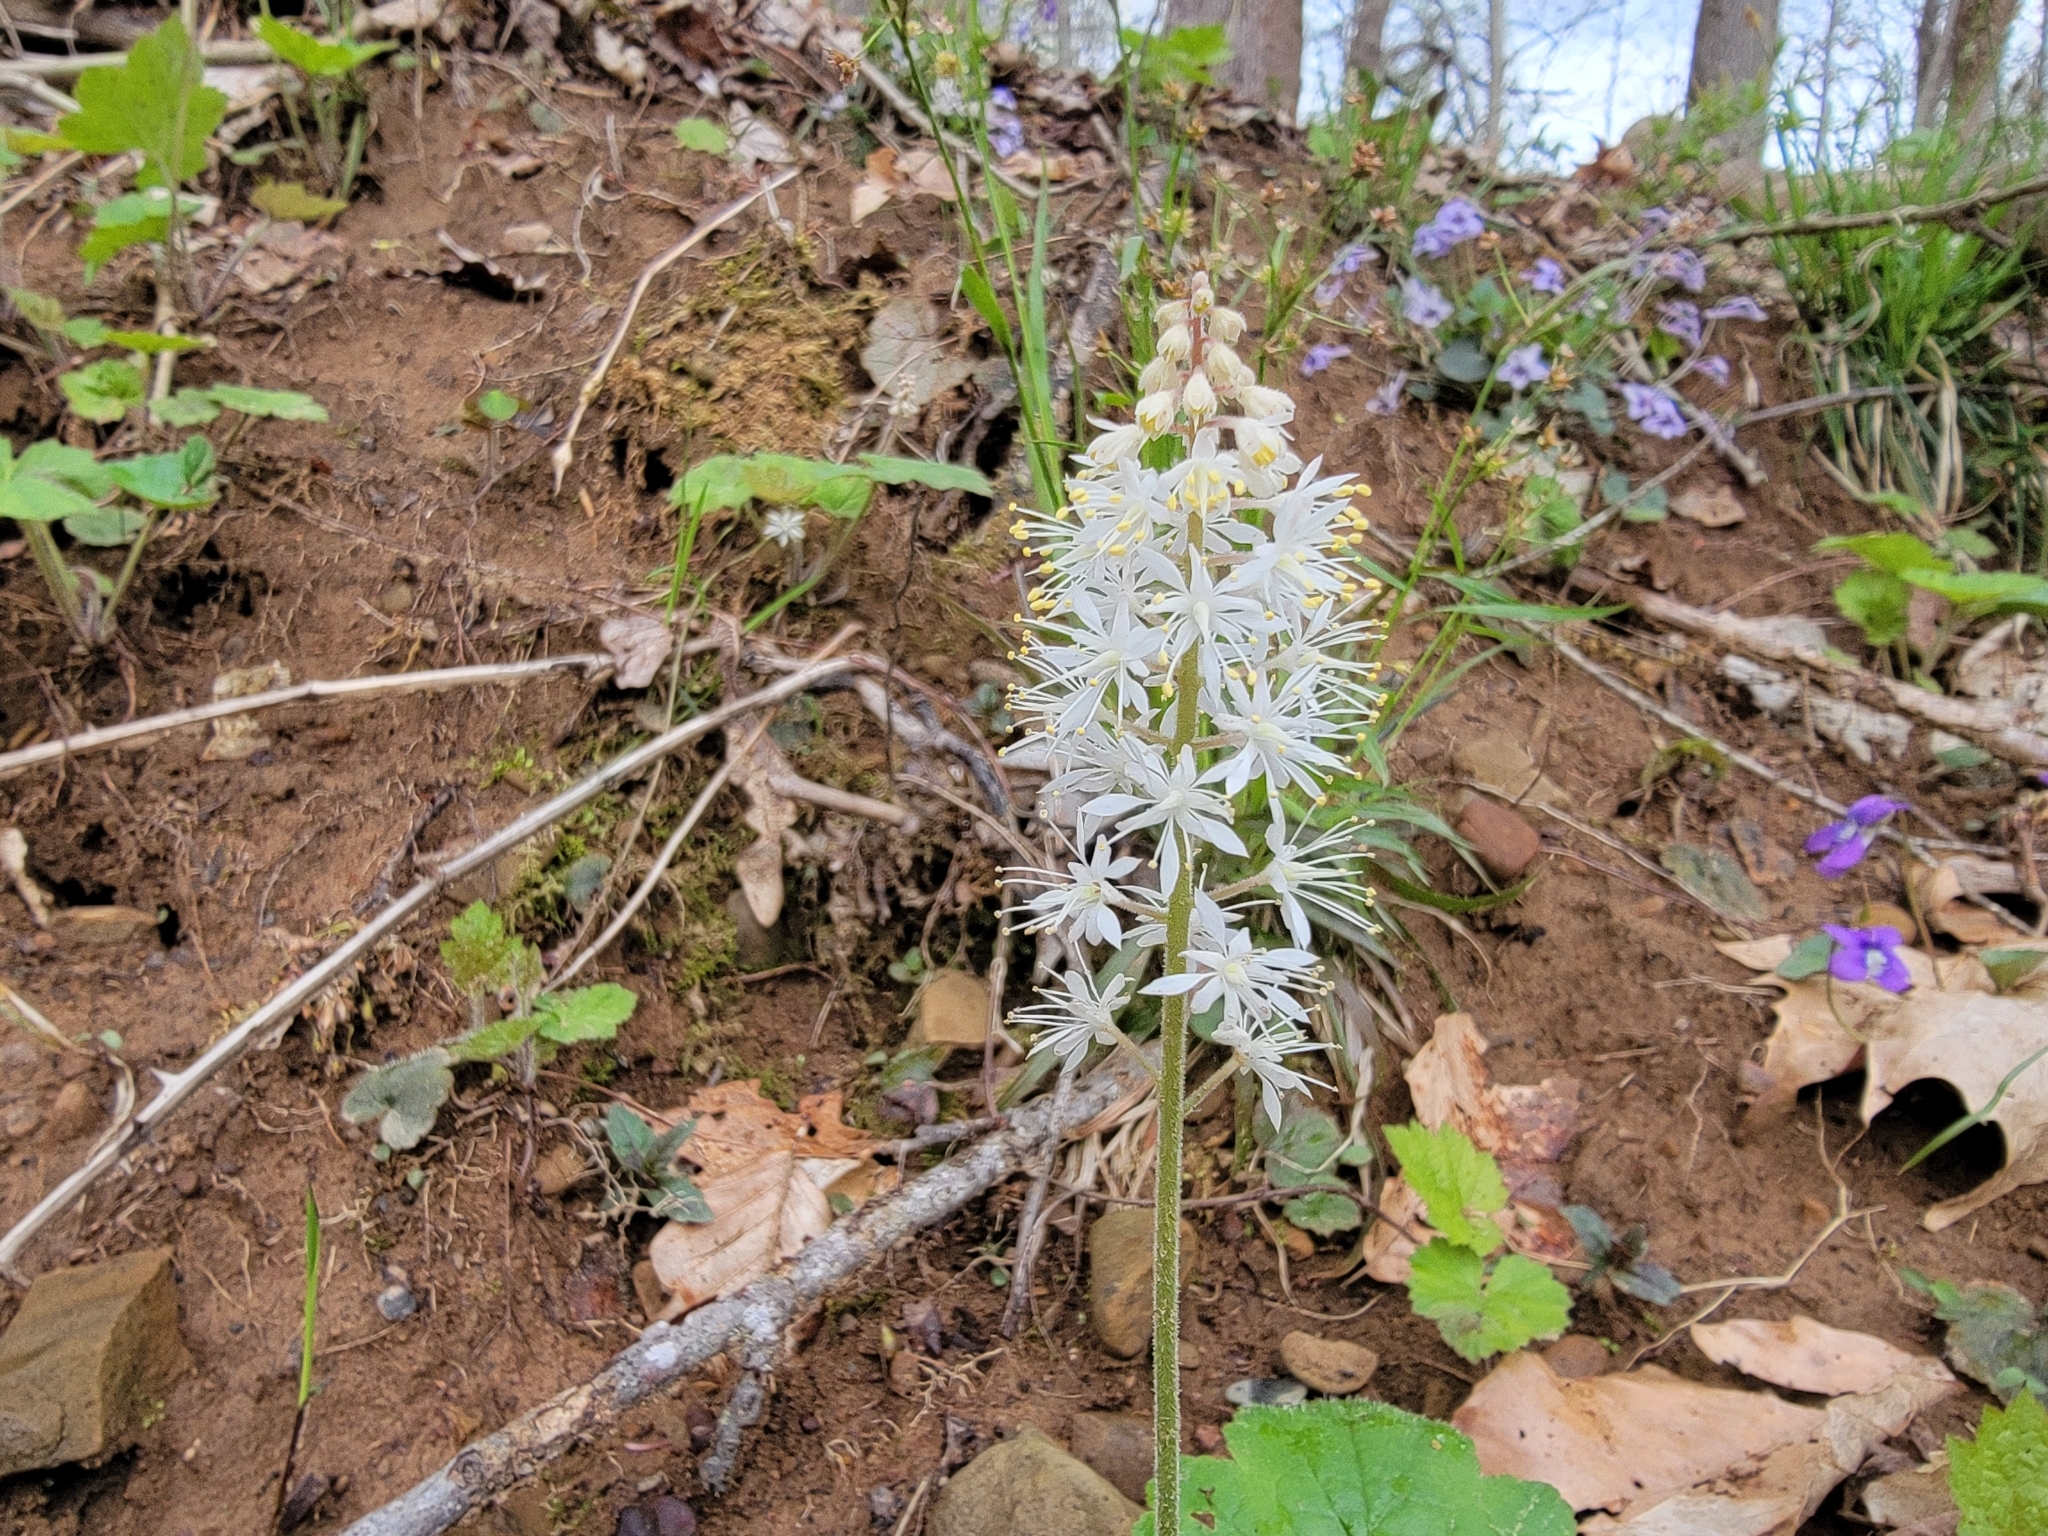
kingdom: Plantae
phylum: Tracheophyta
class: Magnoliopsida
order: Saxifragales
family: Saxifragaceae
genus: Tiarella
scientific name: Tiarella stolonifera
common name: Stoloniferous foamflower
